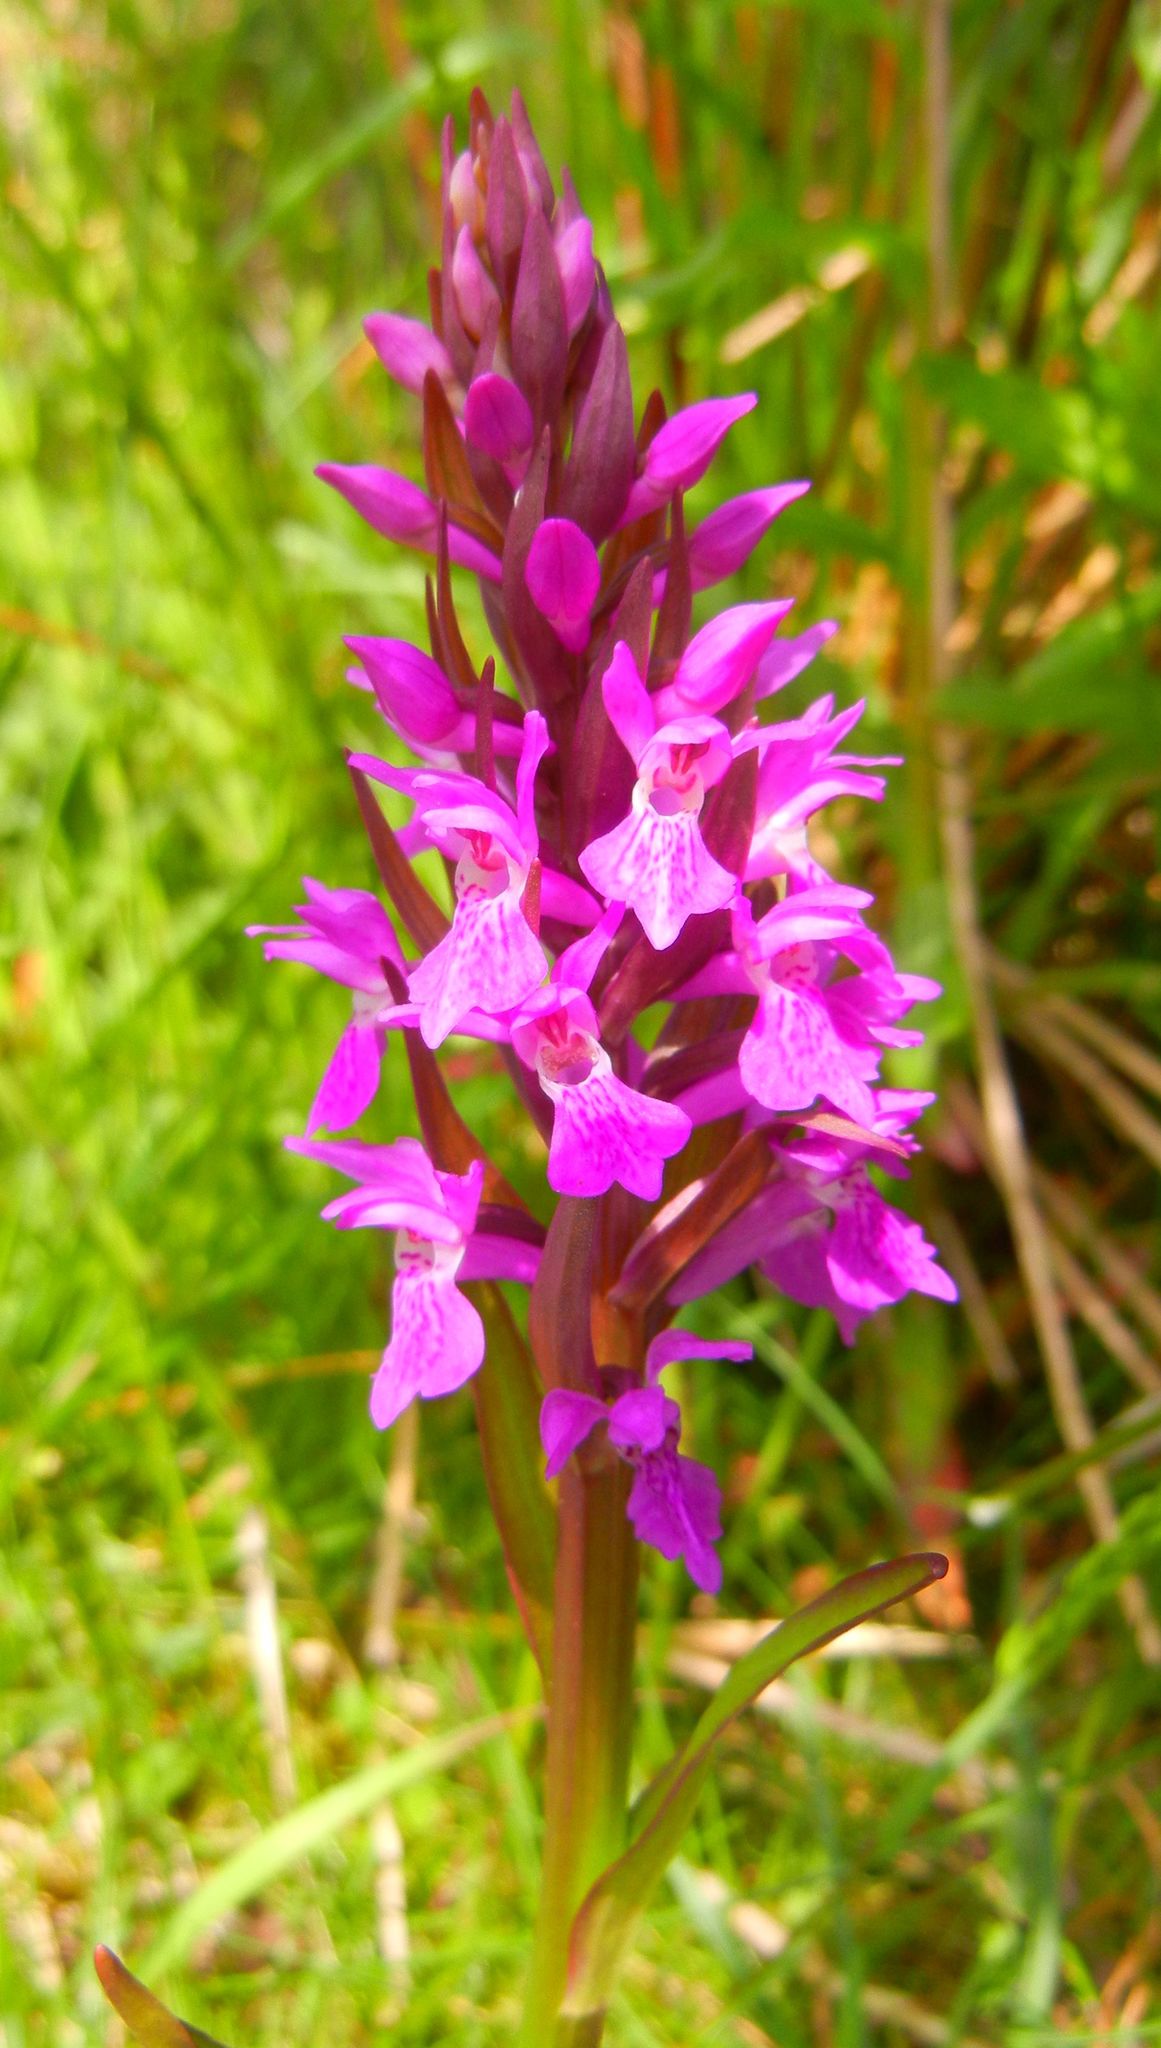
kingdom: Plantae
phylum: Tracheophyta
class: Liliopsida
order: Asparagales
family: Orchidaceae
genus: Dactylorhiza
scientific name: Dactylorhiza majalis
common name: Marsh orchid
